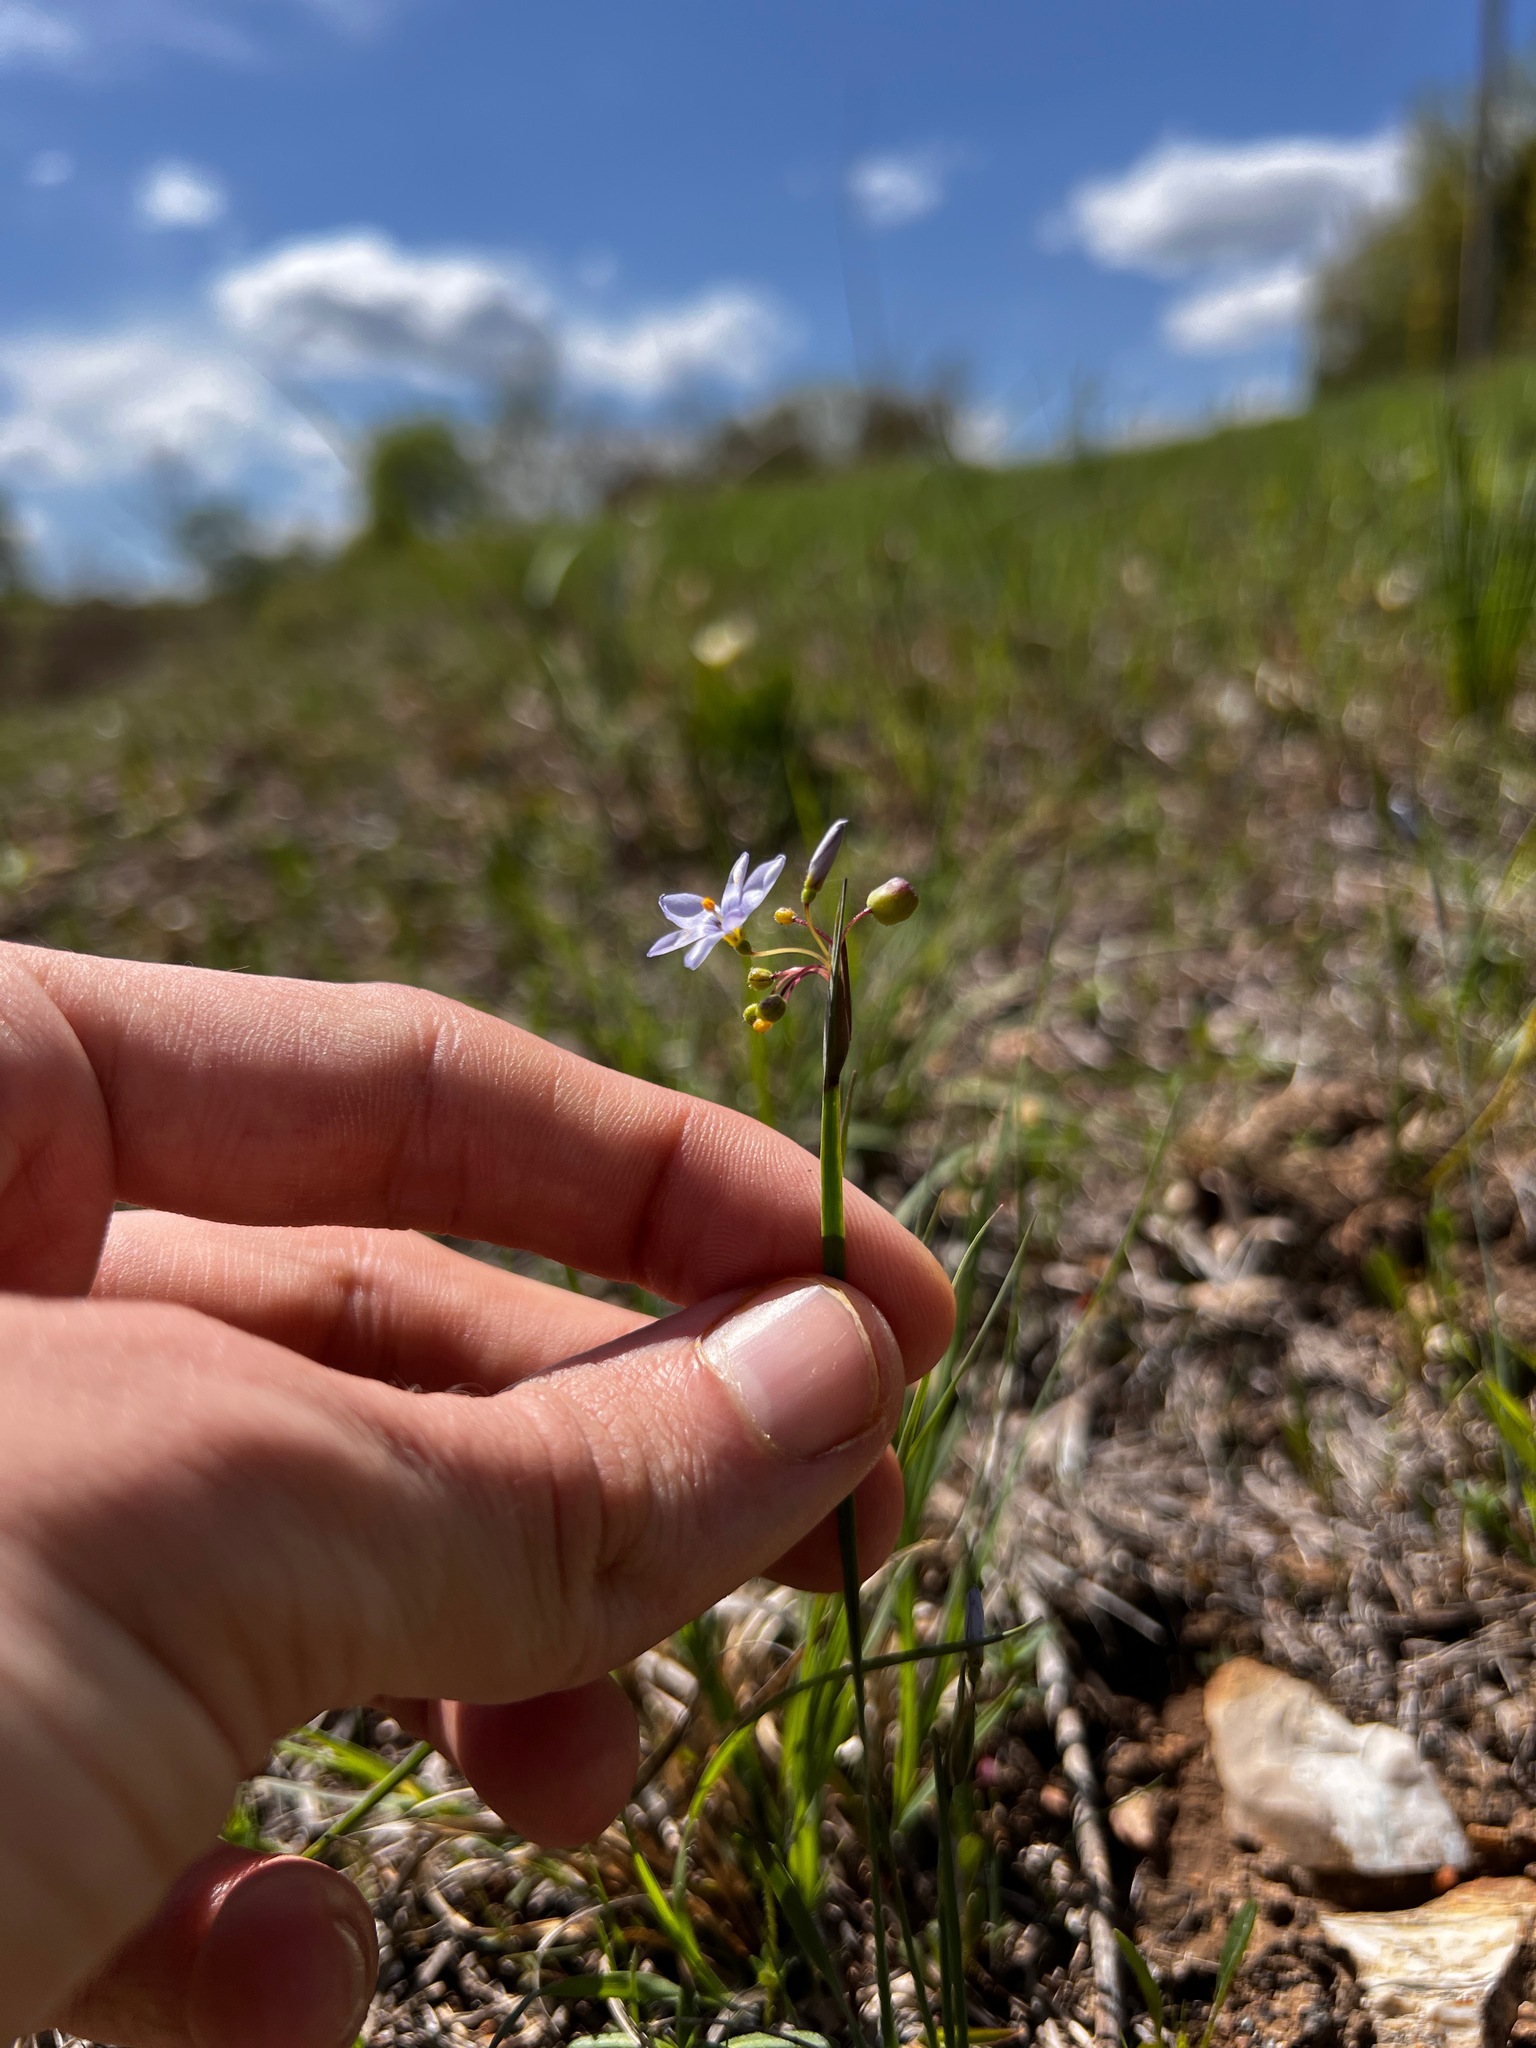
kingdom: Plantae
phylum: Tracheophyta
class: Liliopsida
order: Asparagales
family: Iridaceae
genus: Sisyrinchium
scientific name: Sisyrinchium campestre
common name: Prairie blue-eyed-grass
